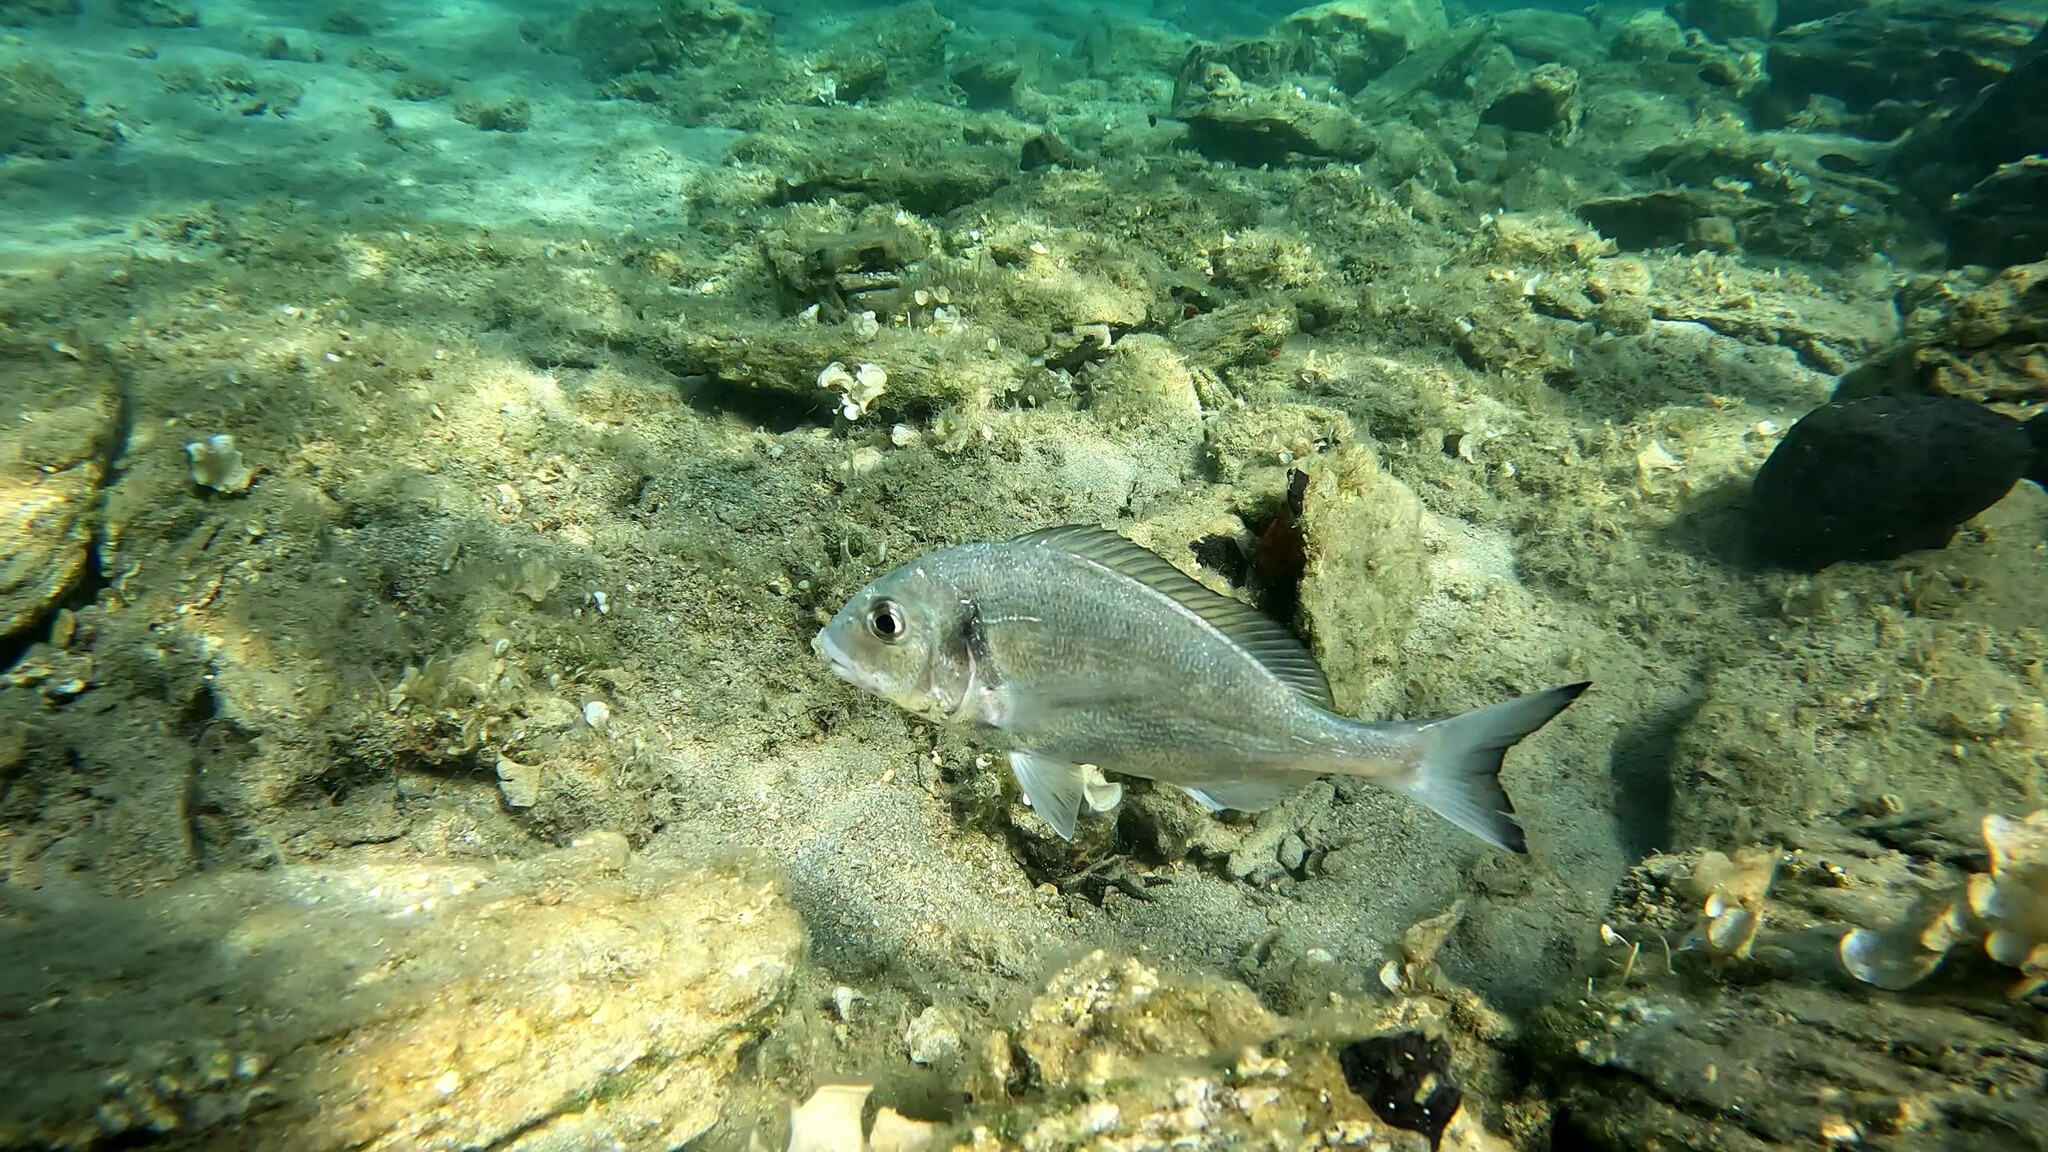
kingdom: Animalia
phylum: Chordata
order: Perciformes
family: Sparidae
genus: Sparus
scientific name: Sparus aurata
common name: Gilthead
